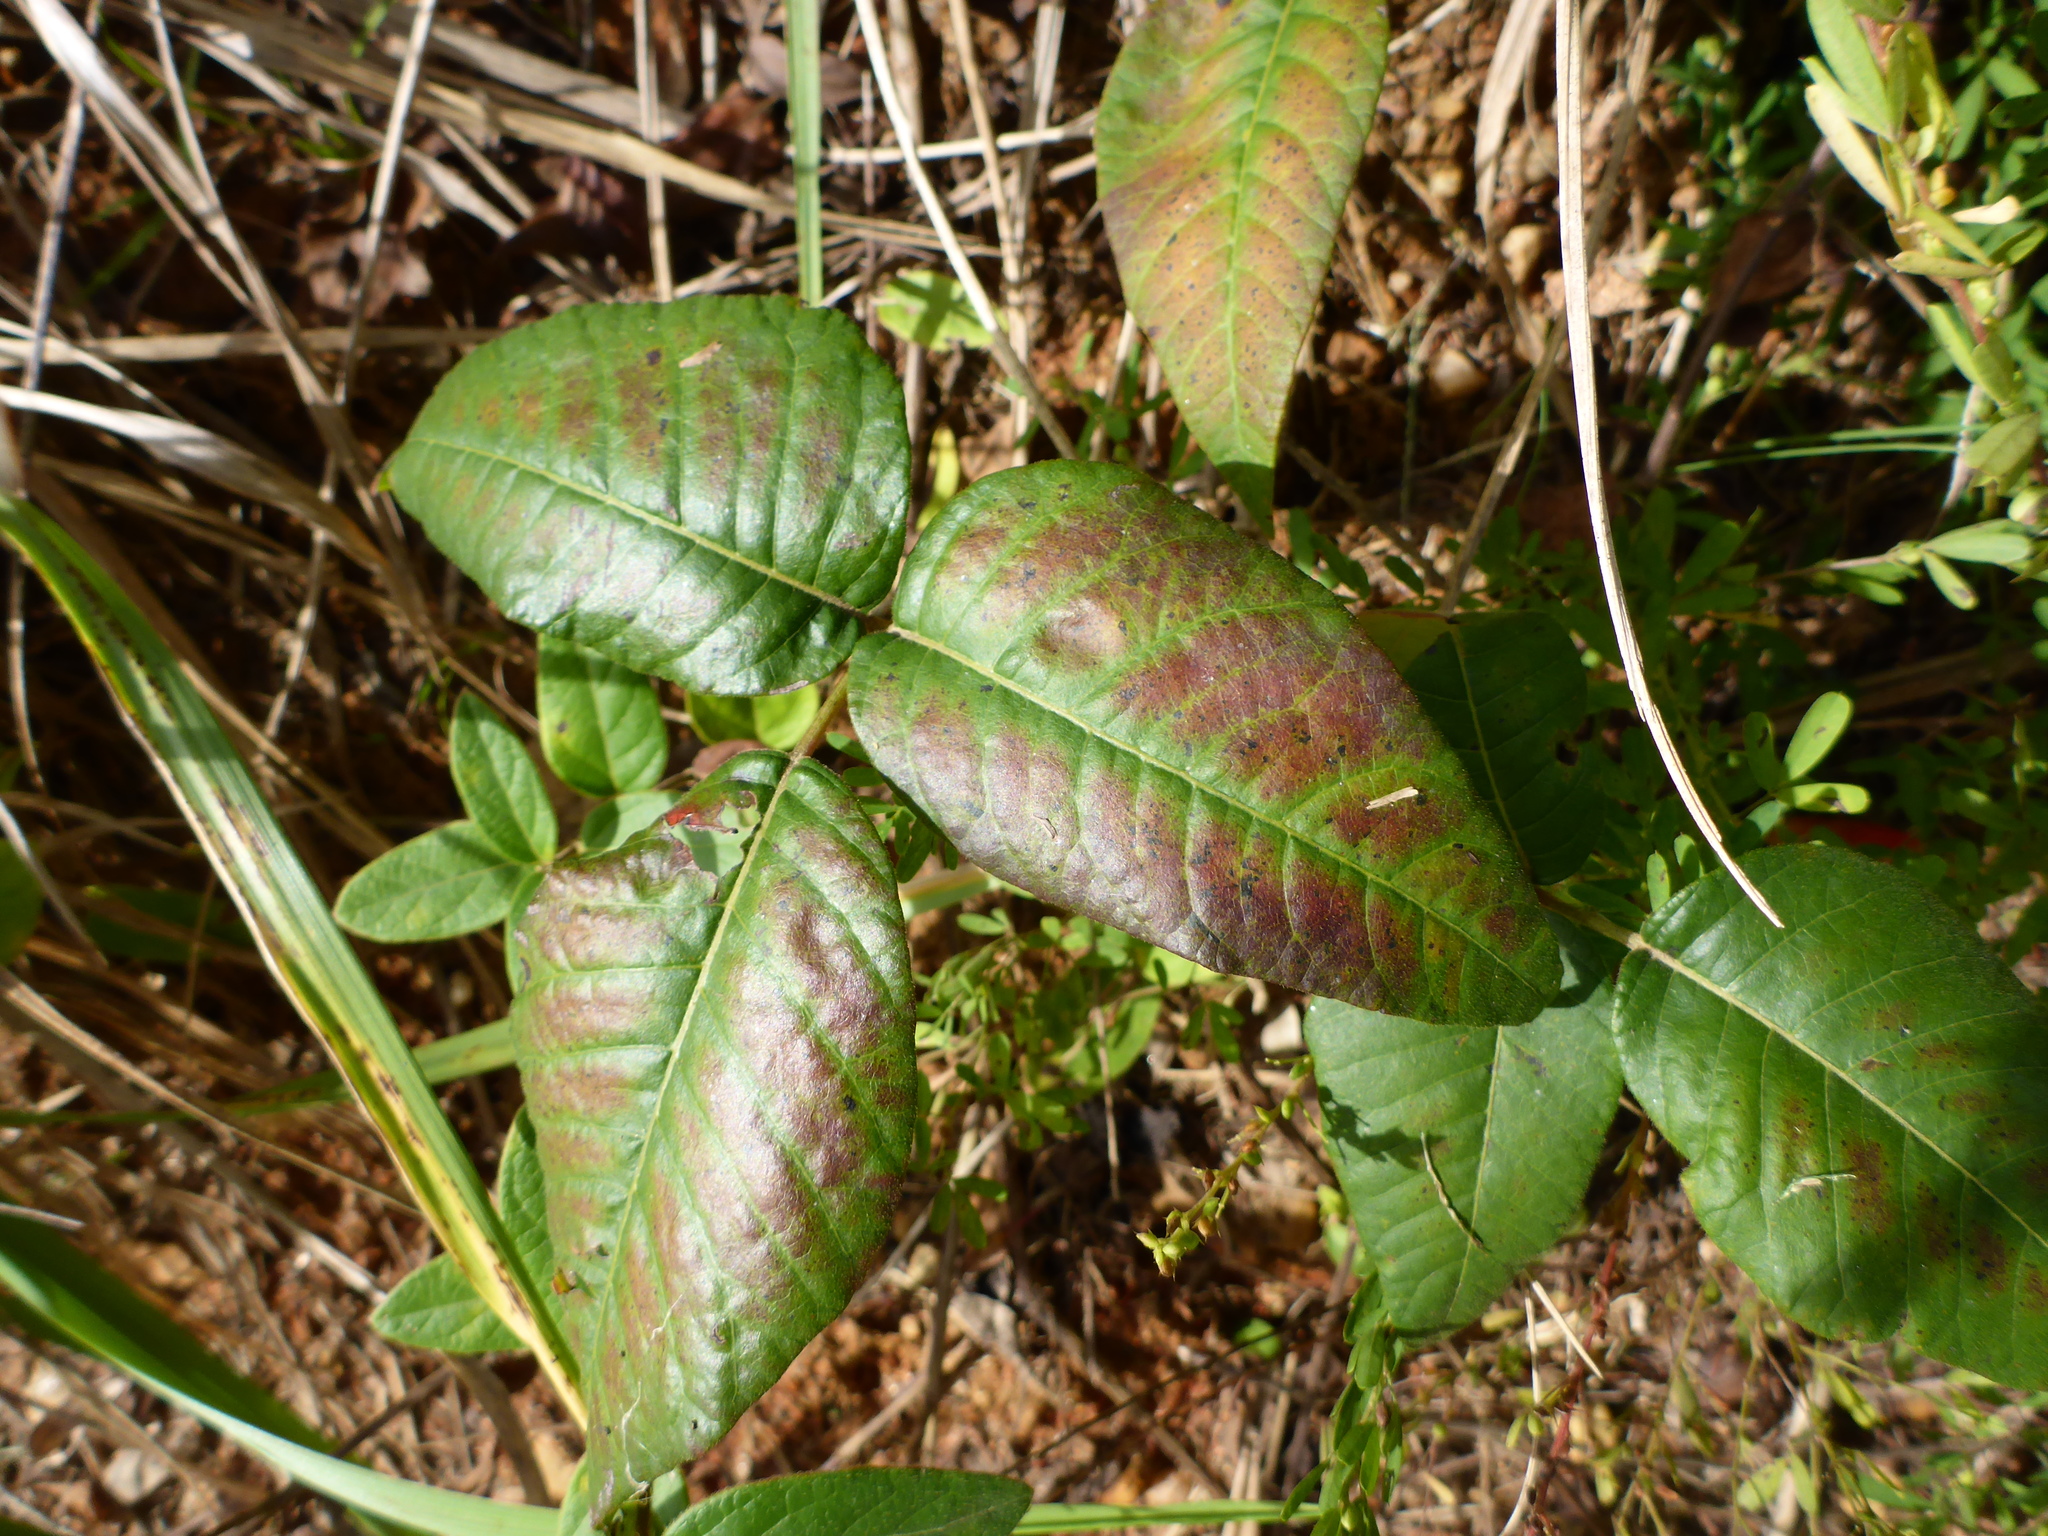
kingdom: Plantae
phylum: Tracheophyta
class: Magnoliopsida
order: Sapindales
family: Anacardiaceae
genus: Toxicodendron
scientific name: Toxicodendron radicans
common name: Poison ivy
